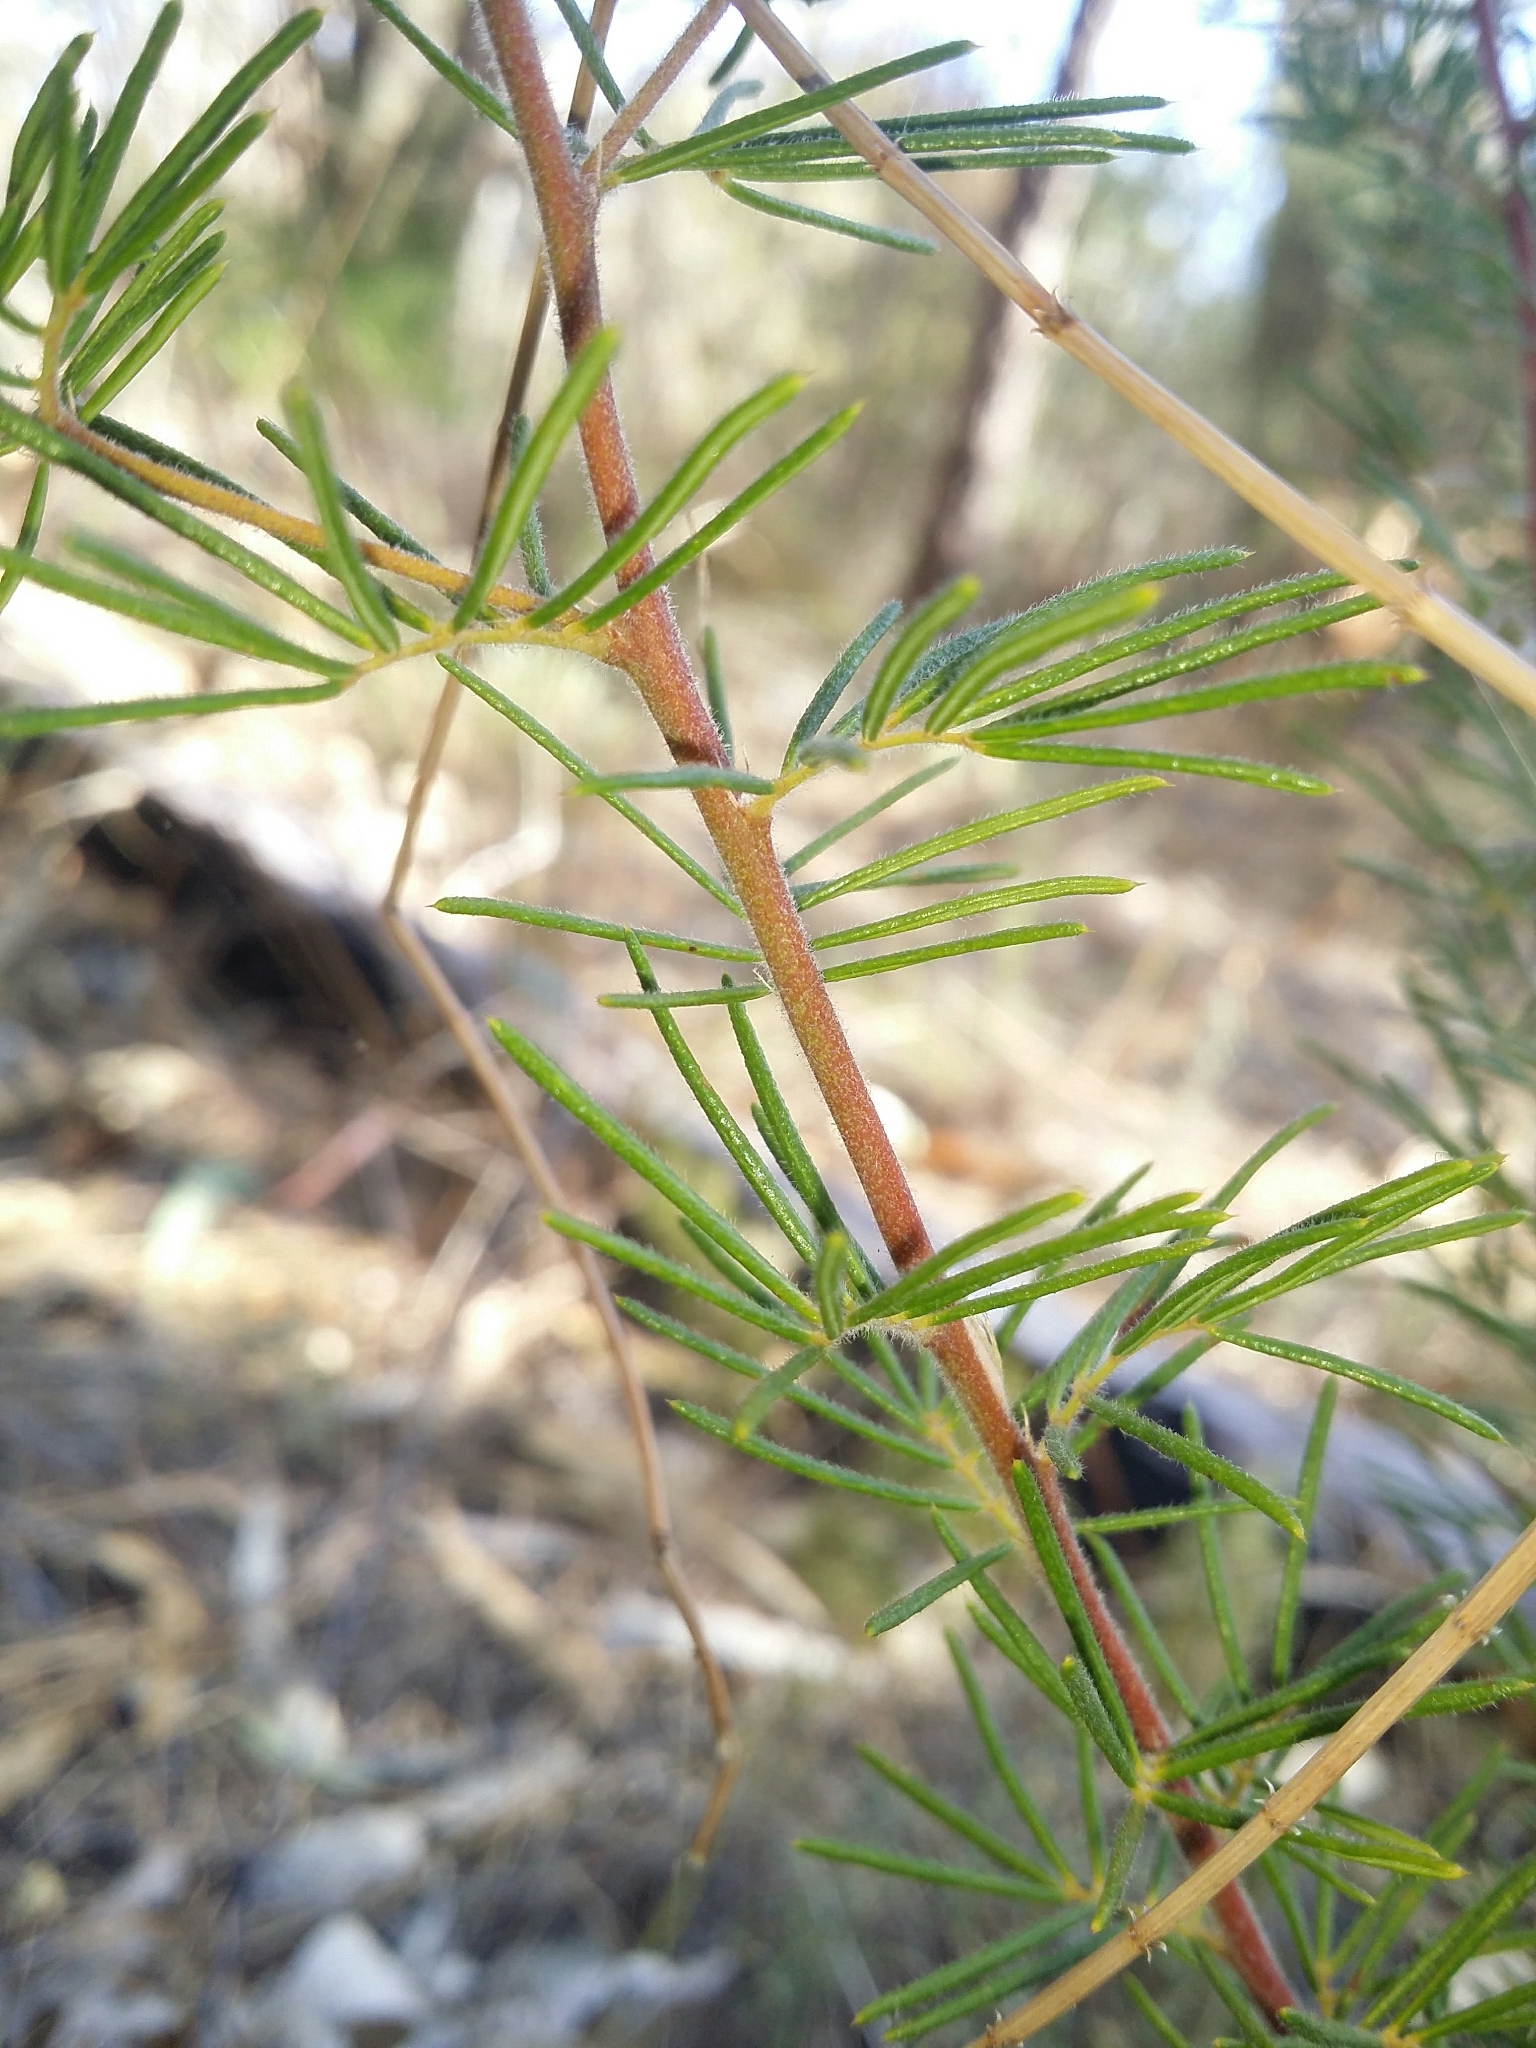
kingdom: Plantae
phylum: Tracheophyta
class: Magnoliopsida
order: Fabales
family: Fabaceae
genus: Gompholobium
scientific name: Gompholobium tomentosum
